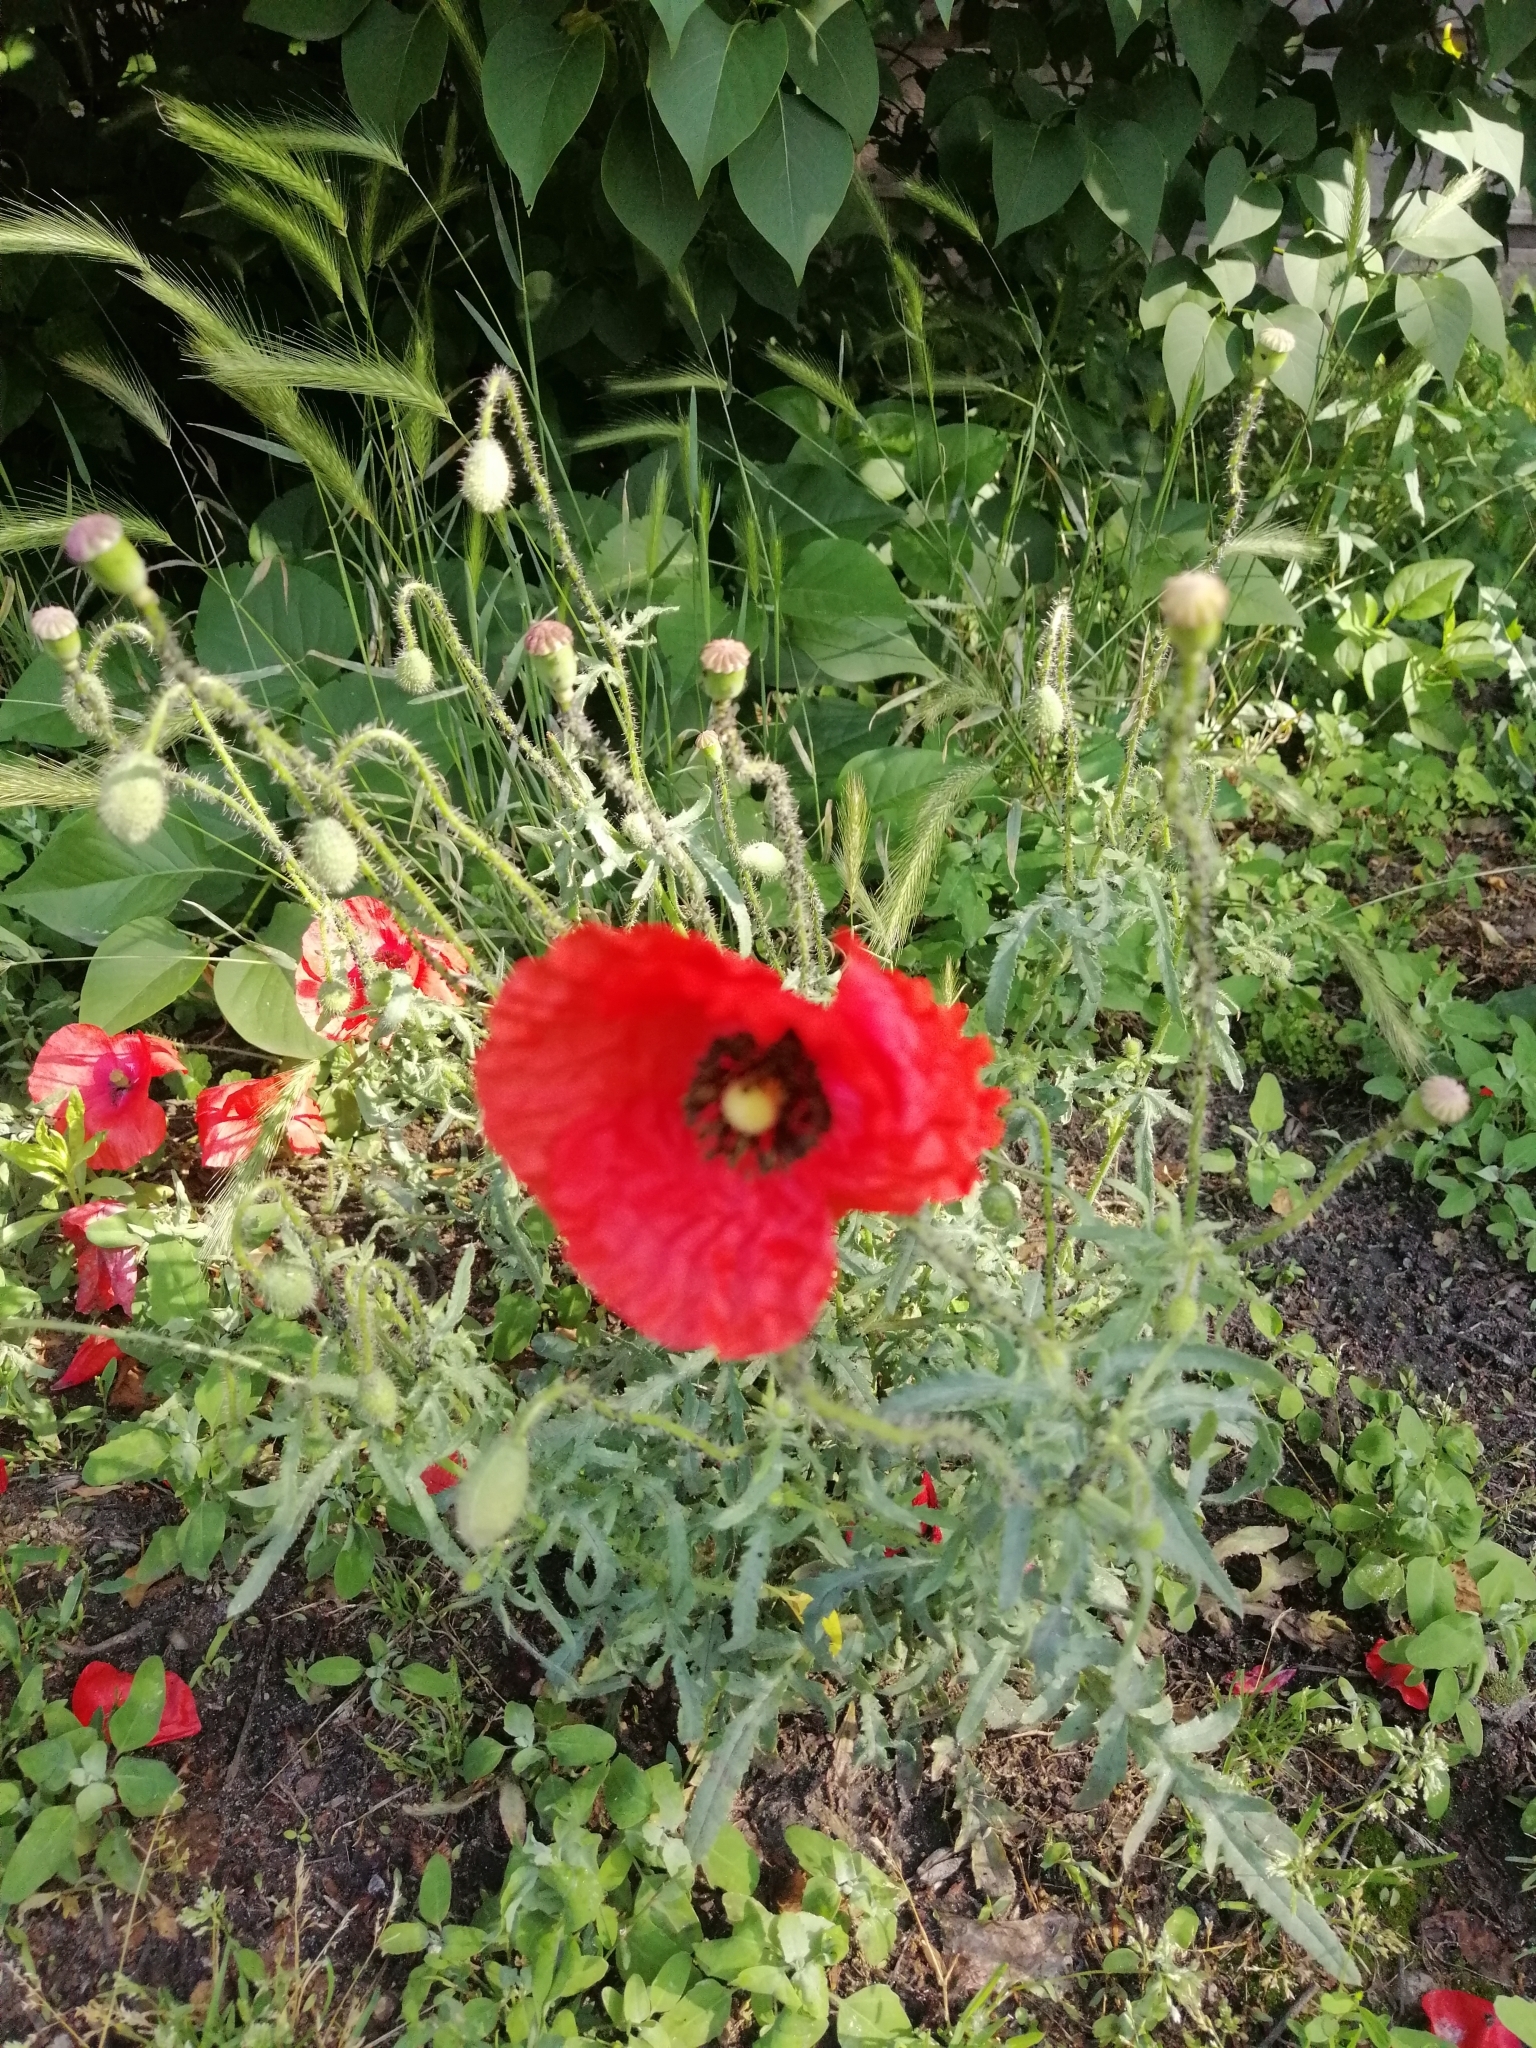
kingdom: Plantae
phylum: Tracheophyta
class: Magnoliopsida
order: Ranunculales
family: Papaveraceae
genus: Papaver
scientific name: Papaver rhoeas
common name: Corn poppy
